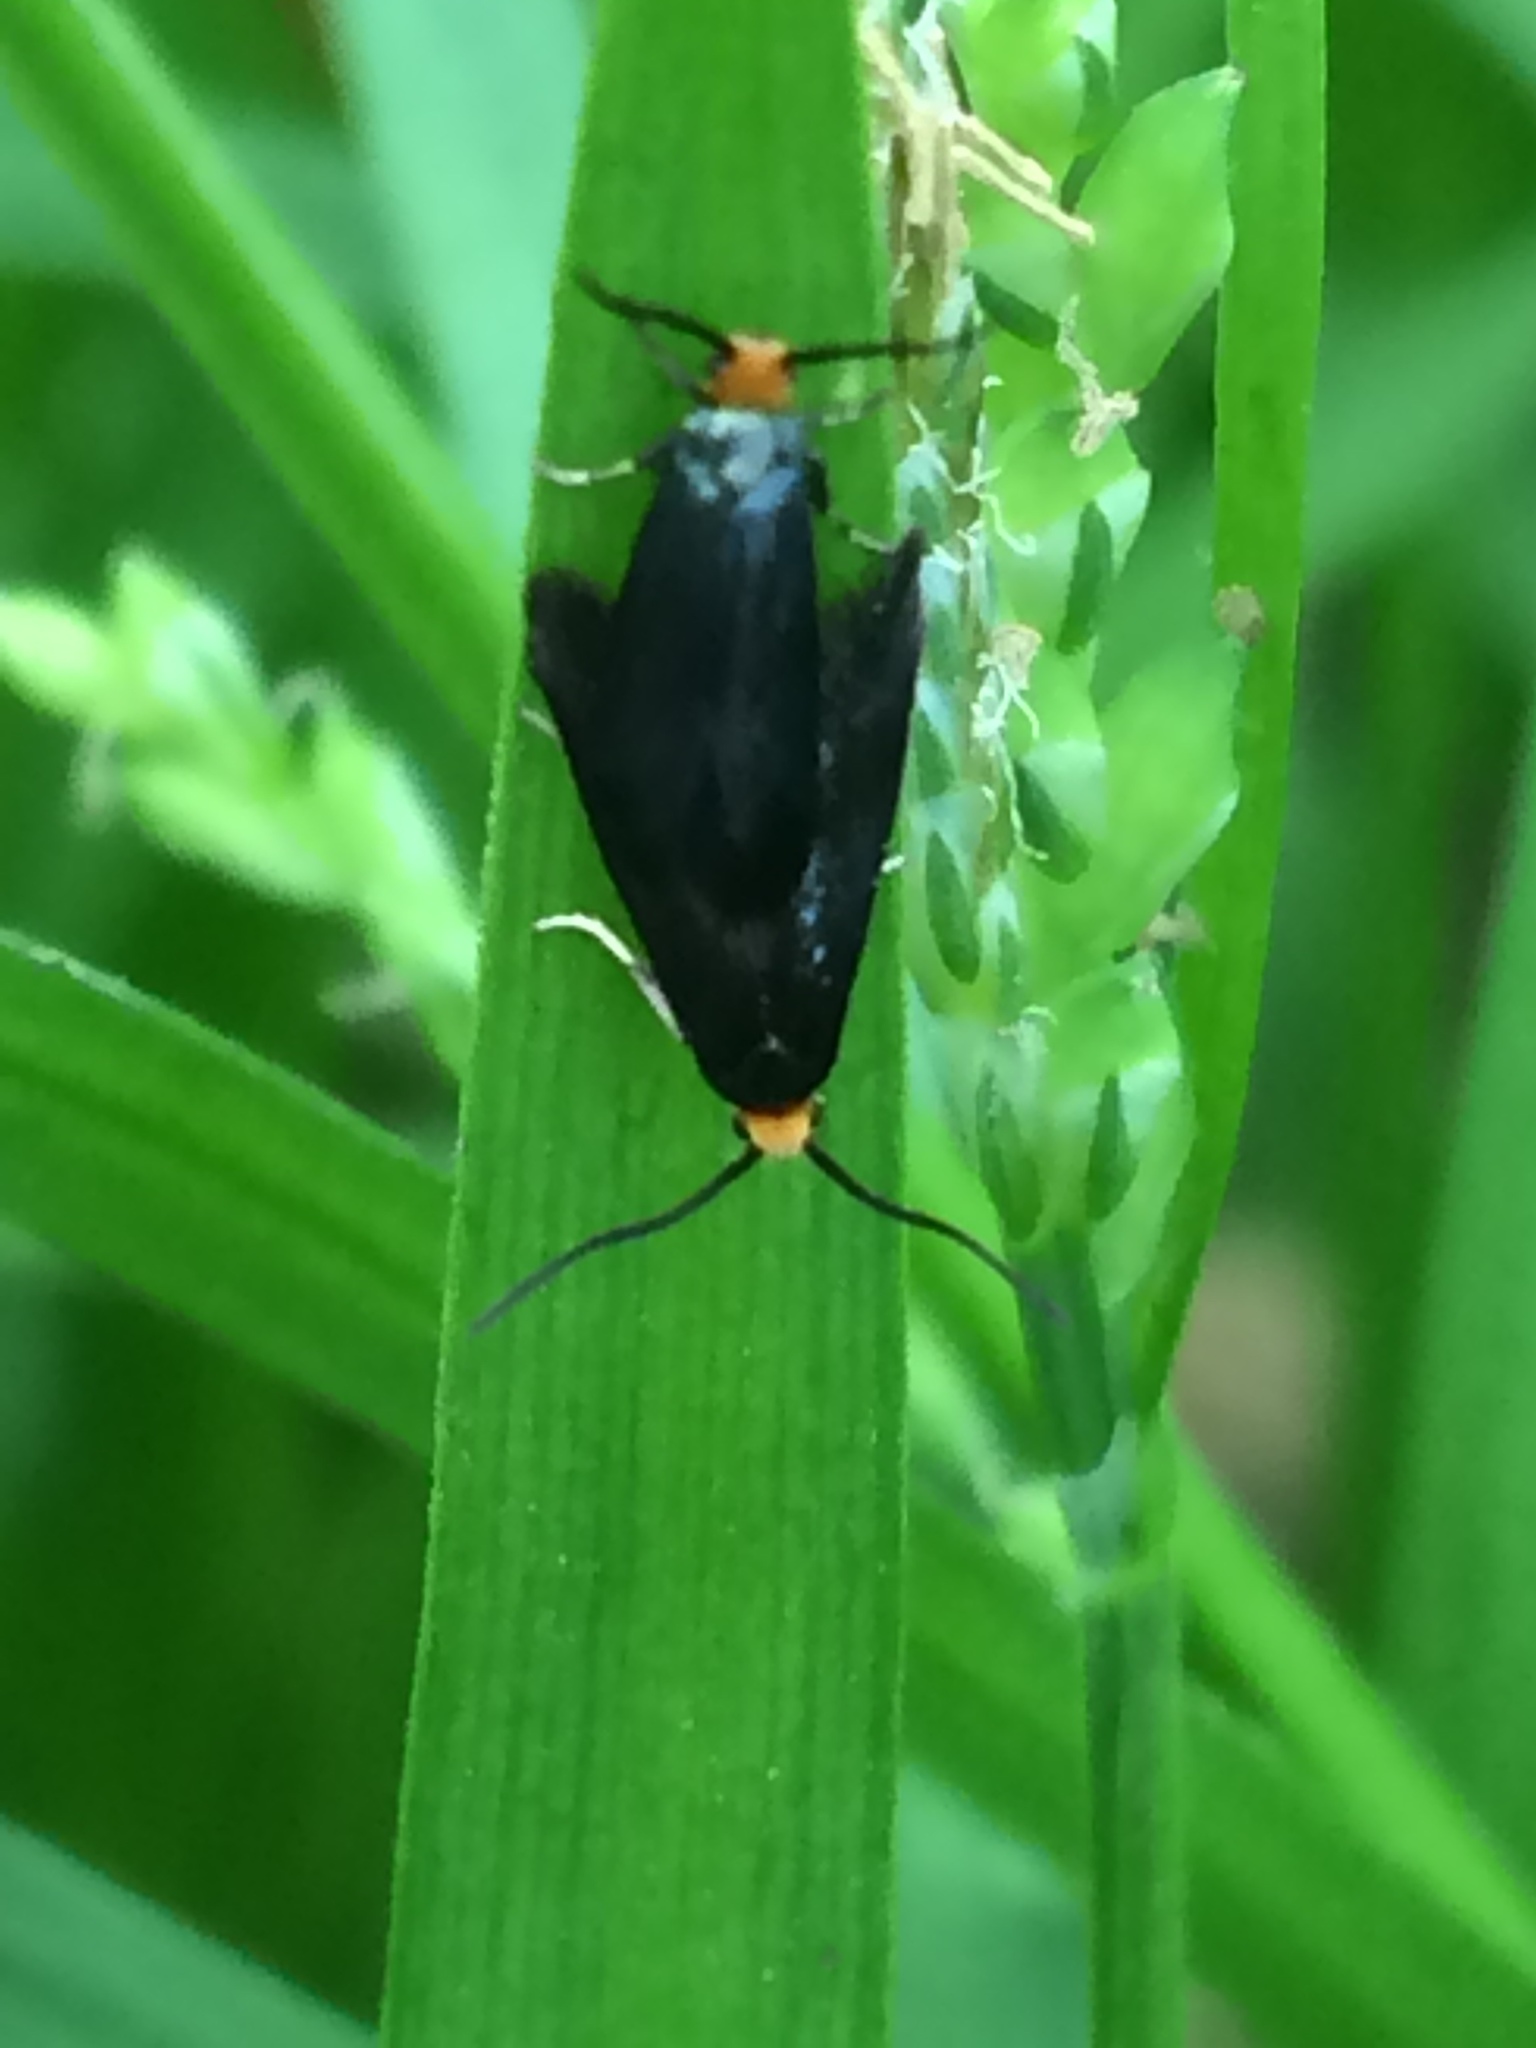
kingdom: Animalia
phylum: Arthropoda
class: Insecta
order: Lepidoptera
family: Incurvariidae
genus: Paraclemensia
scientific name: Paraclemensia acerifoliella
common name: Maple leafcutter
